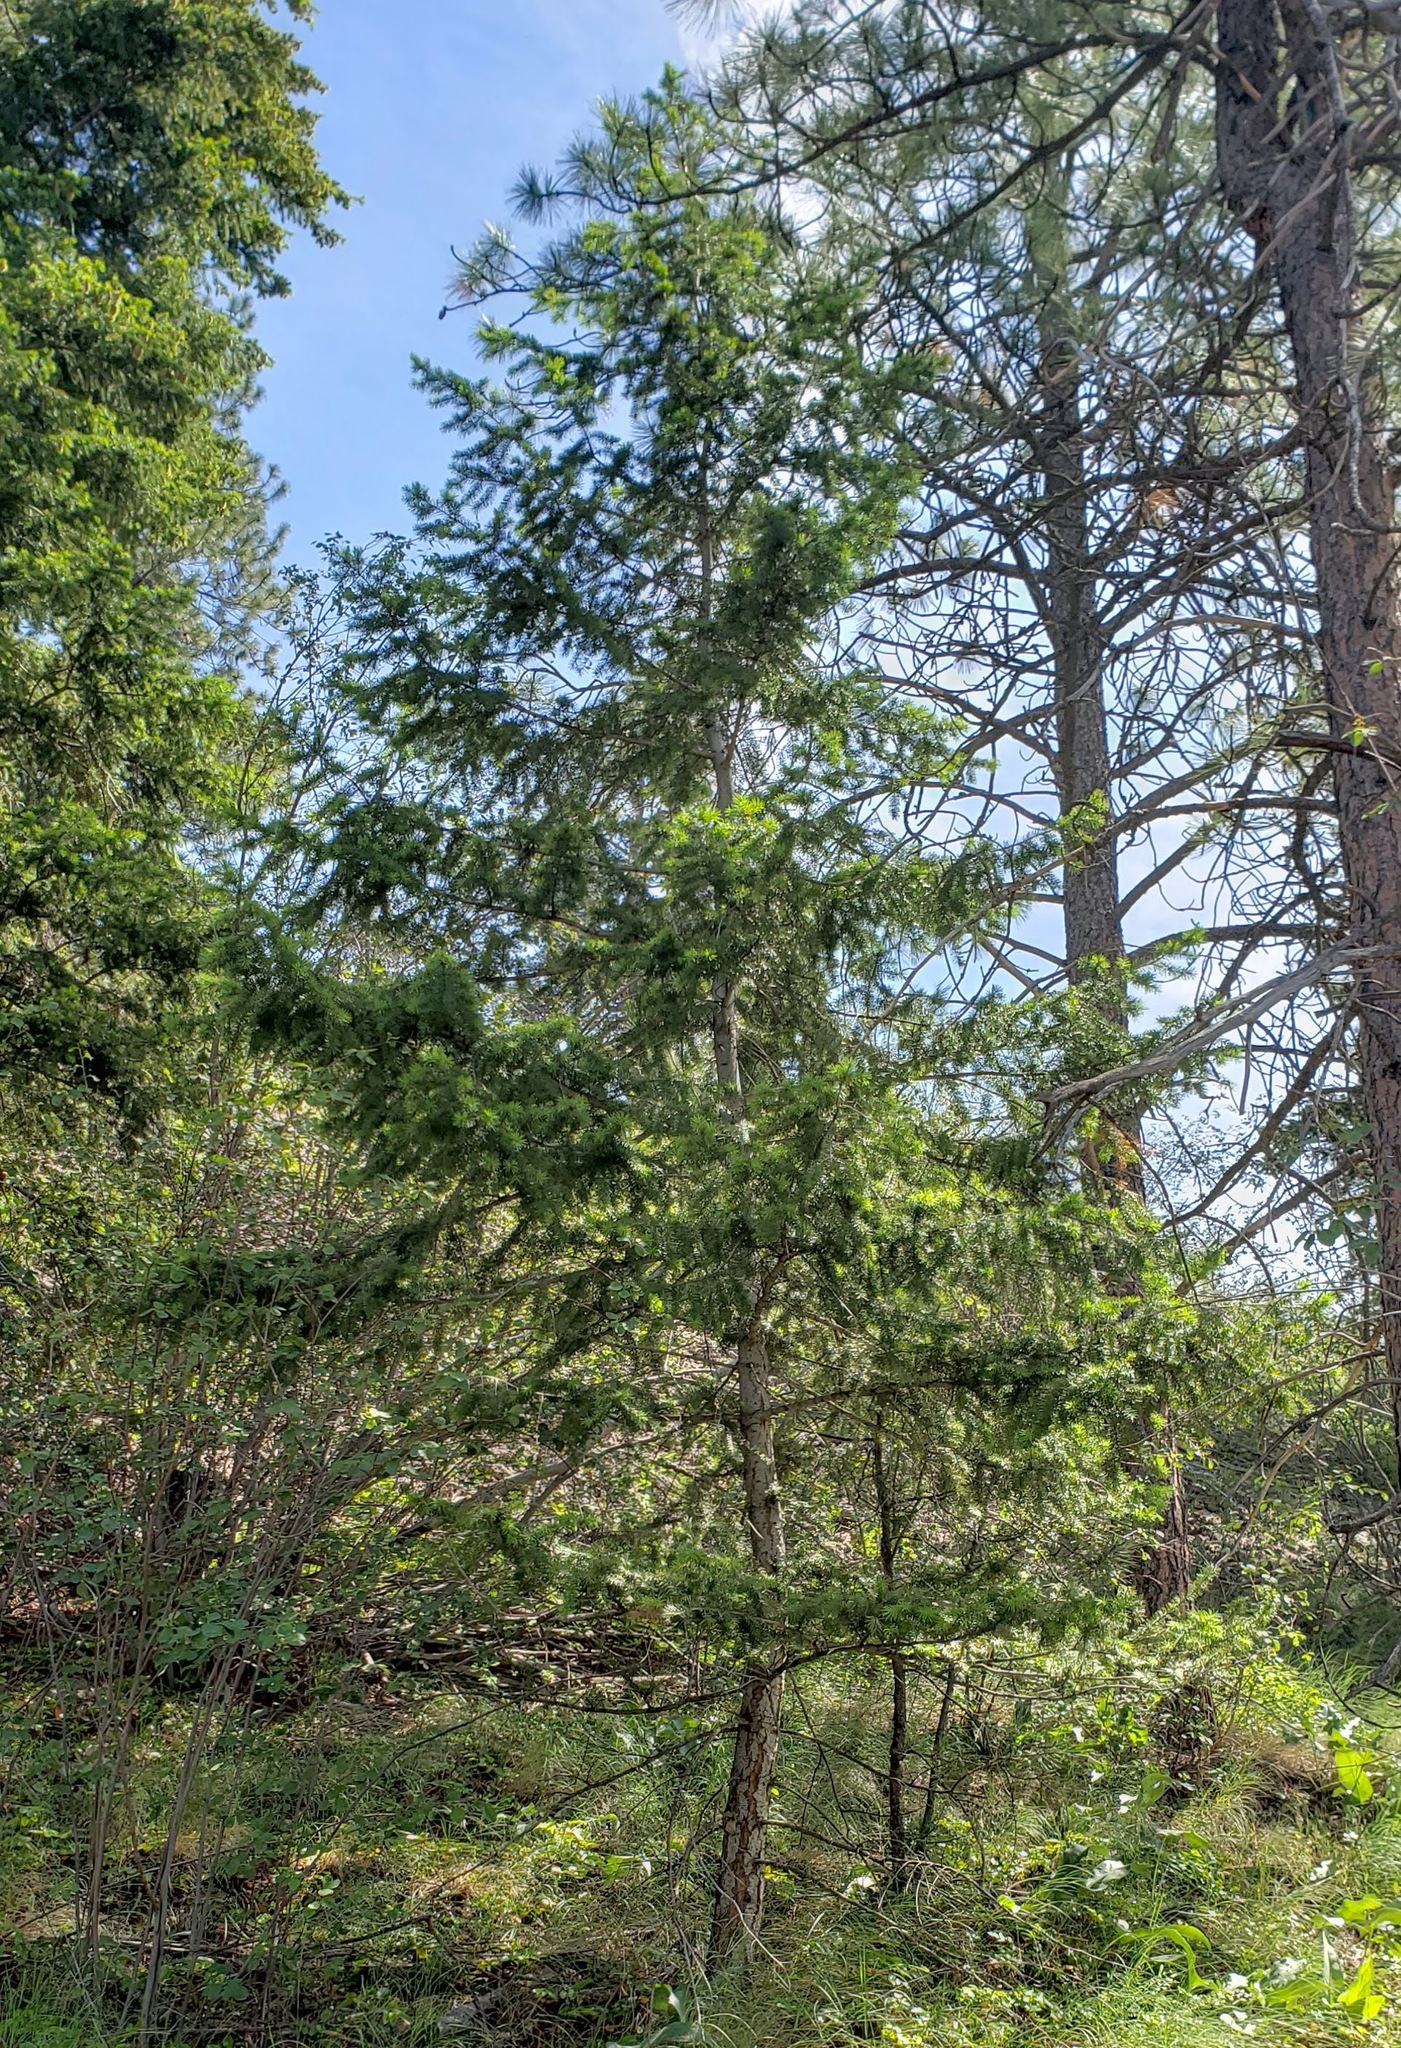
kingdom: Plantae
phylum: Tracheophyta
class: Pinopsida
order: Pinales
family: Pinaceae
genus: Pseudotsuga
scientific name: Pseudotsuga menziesii
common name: Douglas fir
